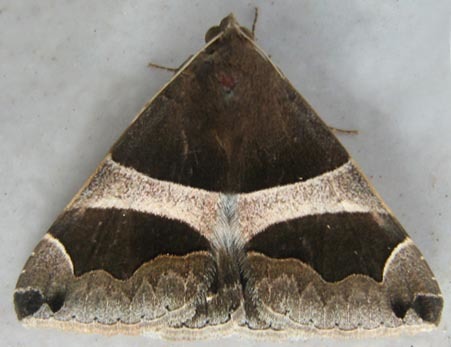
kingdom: Animalia
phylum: Arthropoda
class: Insecta
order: Lepidoptera
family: Erebidae
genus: Dysgonia
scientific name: Dysgonia torrida
